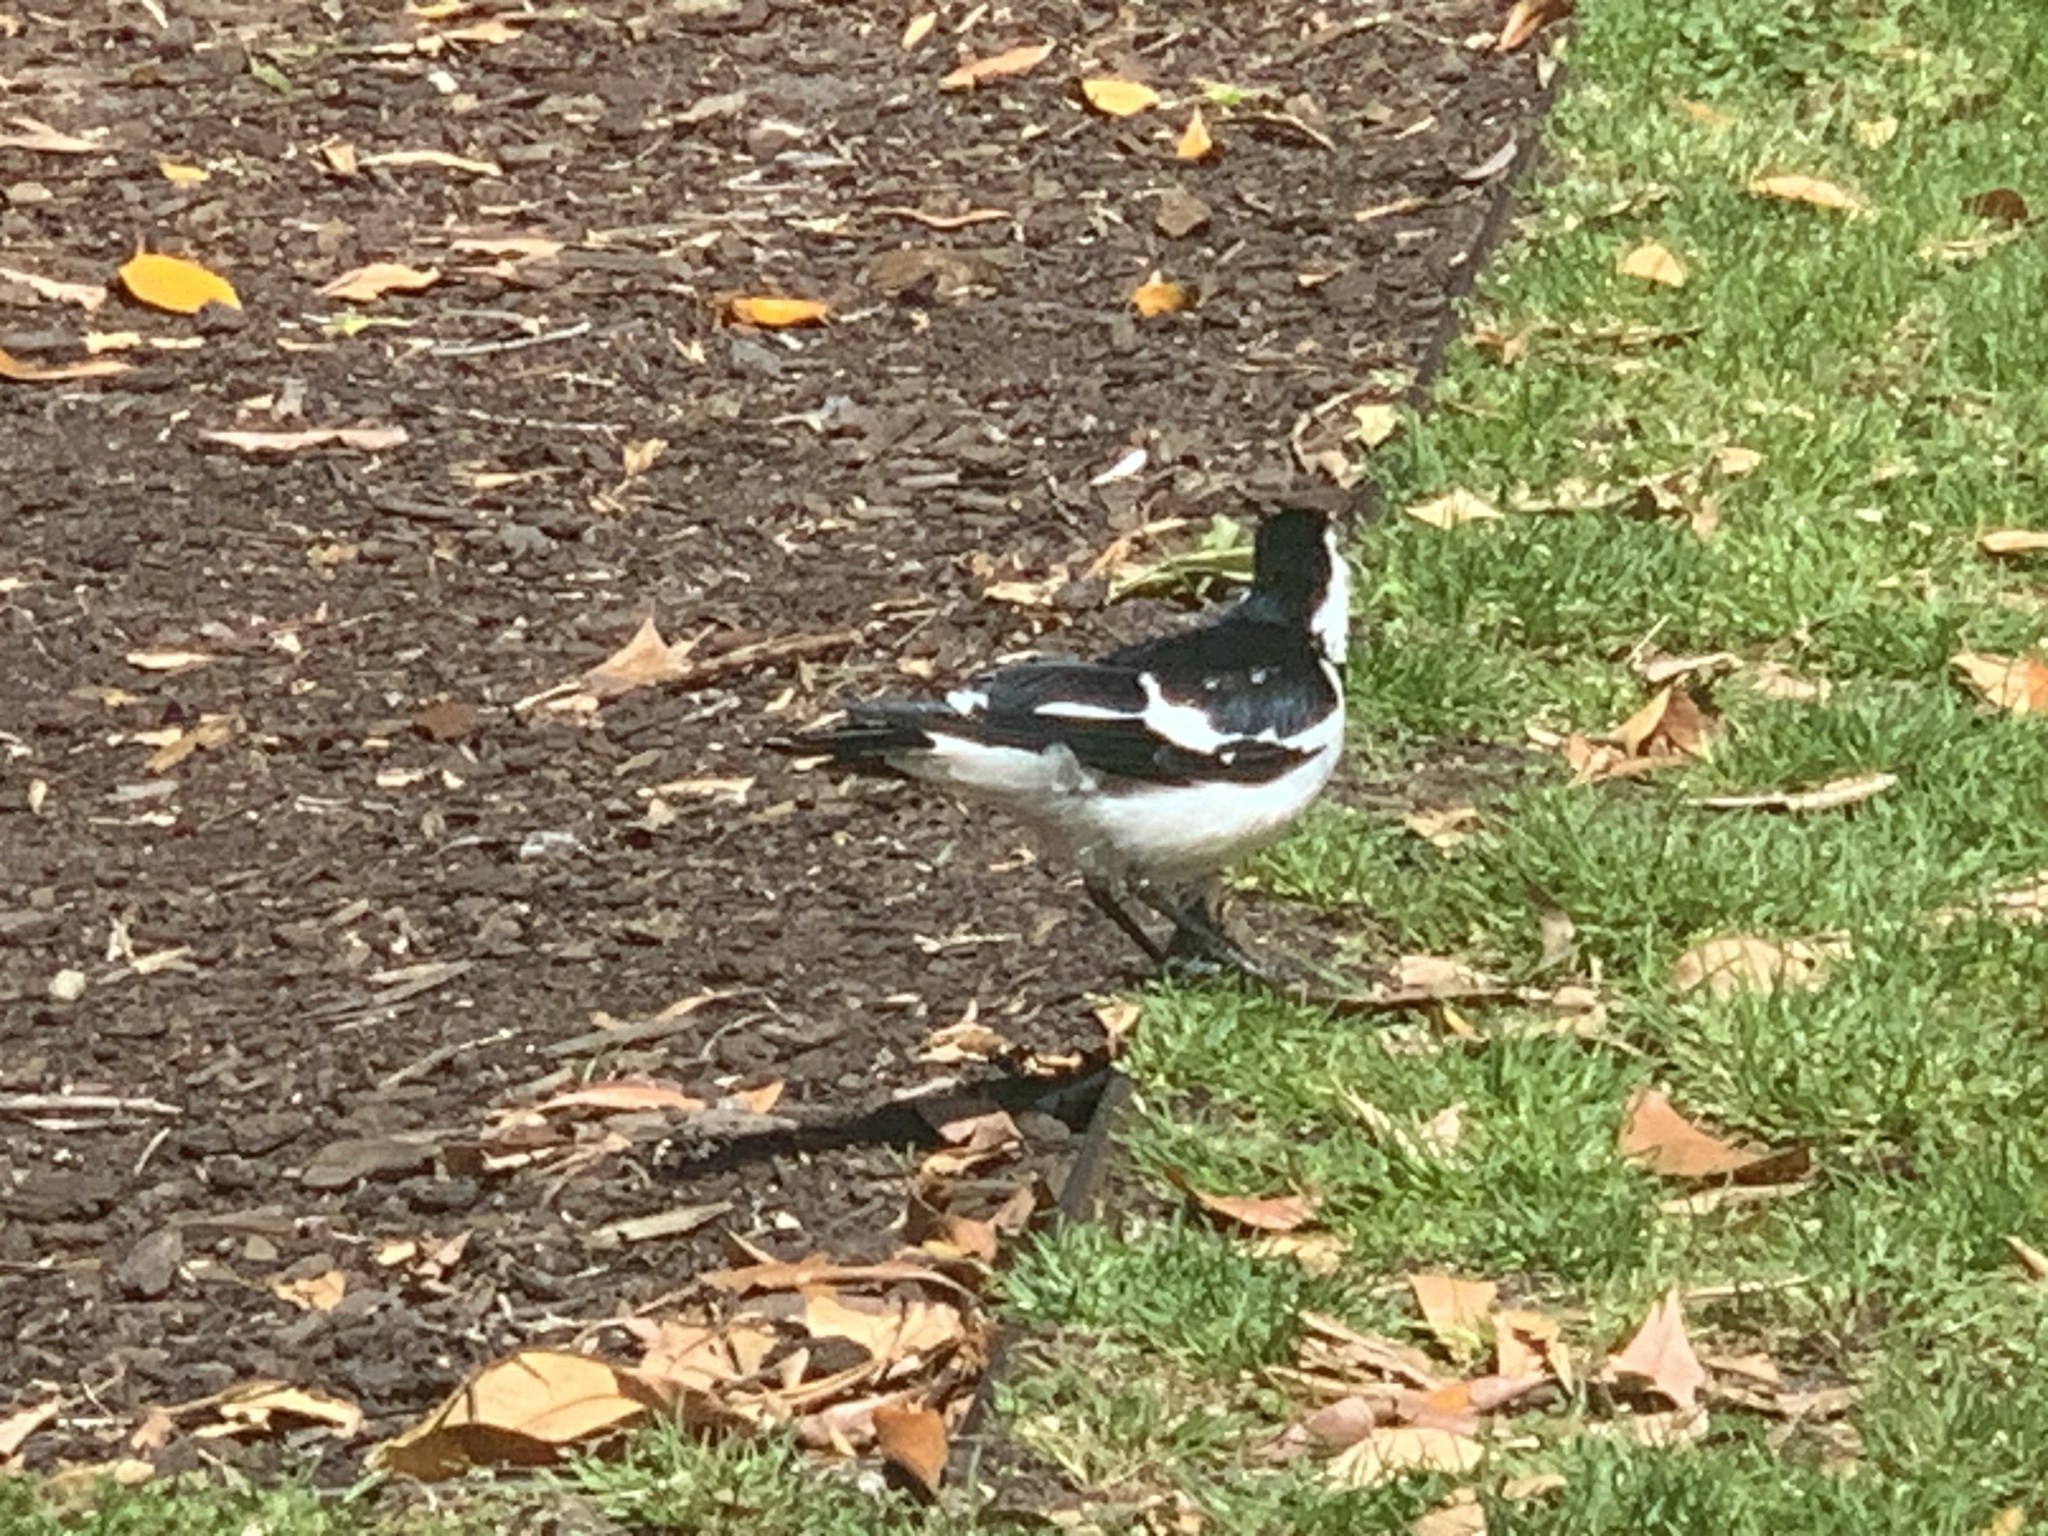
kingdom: Animalia
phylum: Chordata
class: Aves
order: Passeriformes
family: Monarchidae
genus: Grallina
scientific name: Grallina cyanoleuca
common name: Magpie-lark
